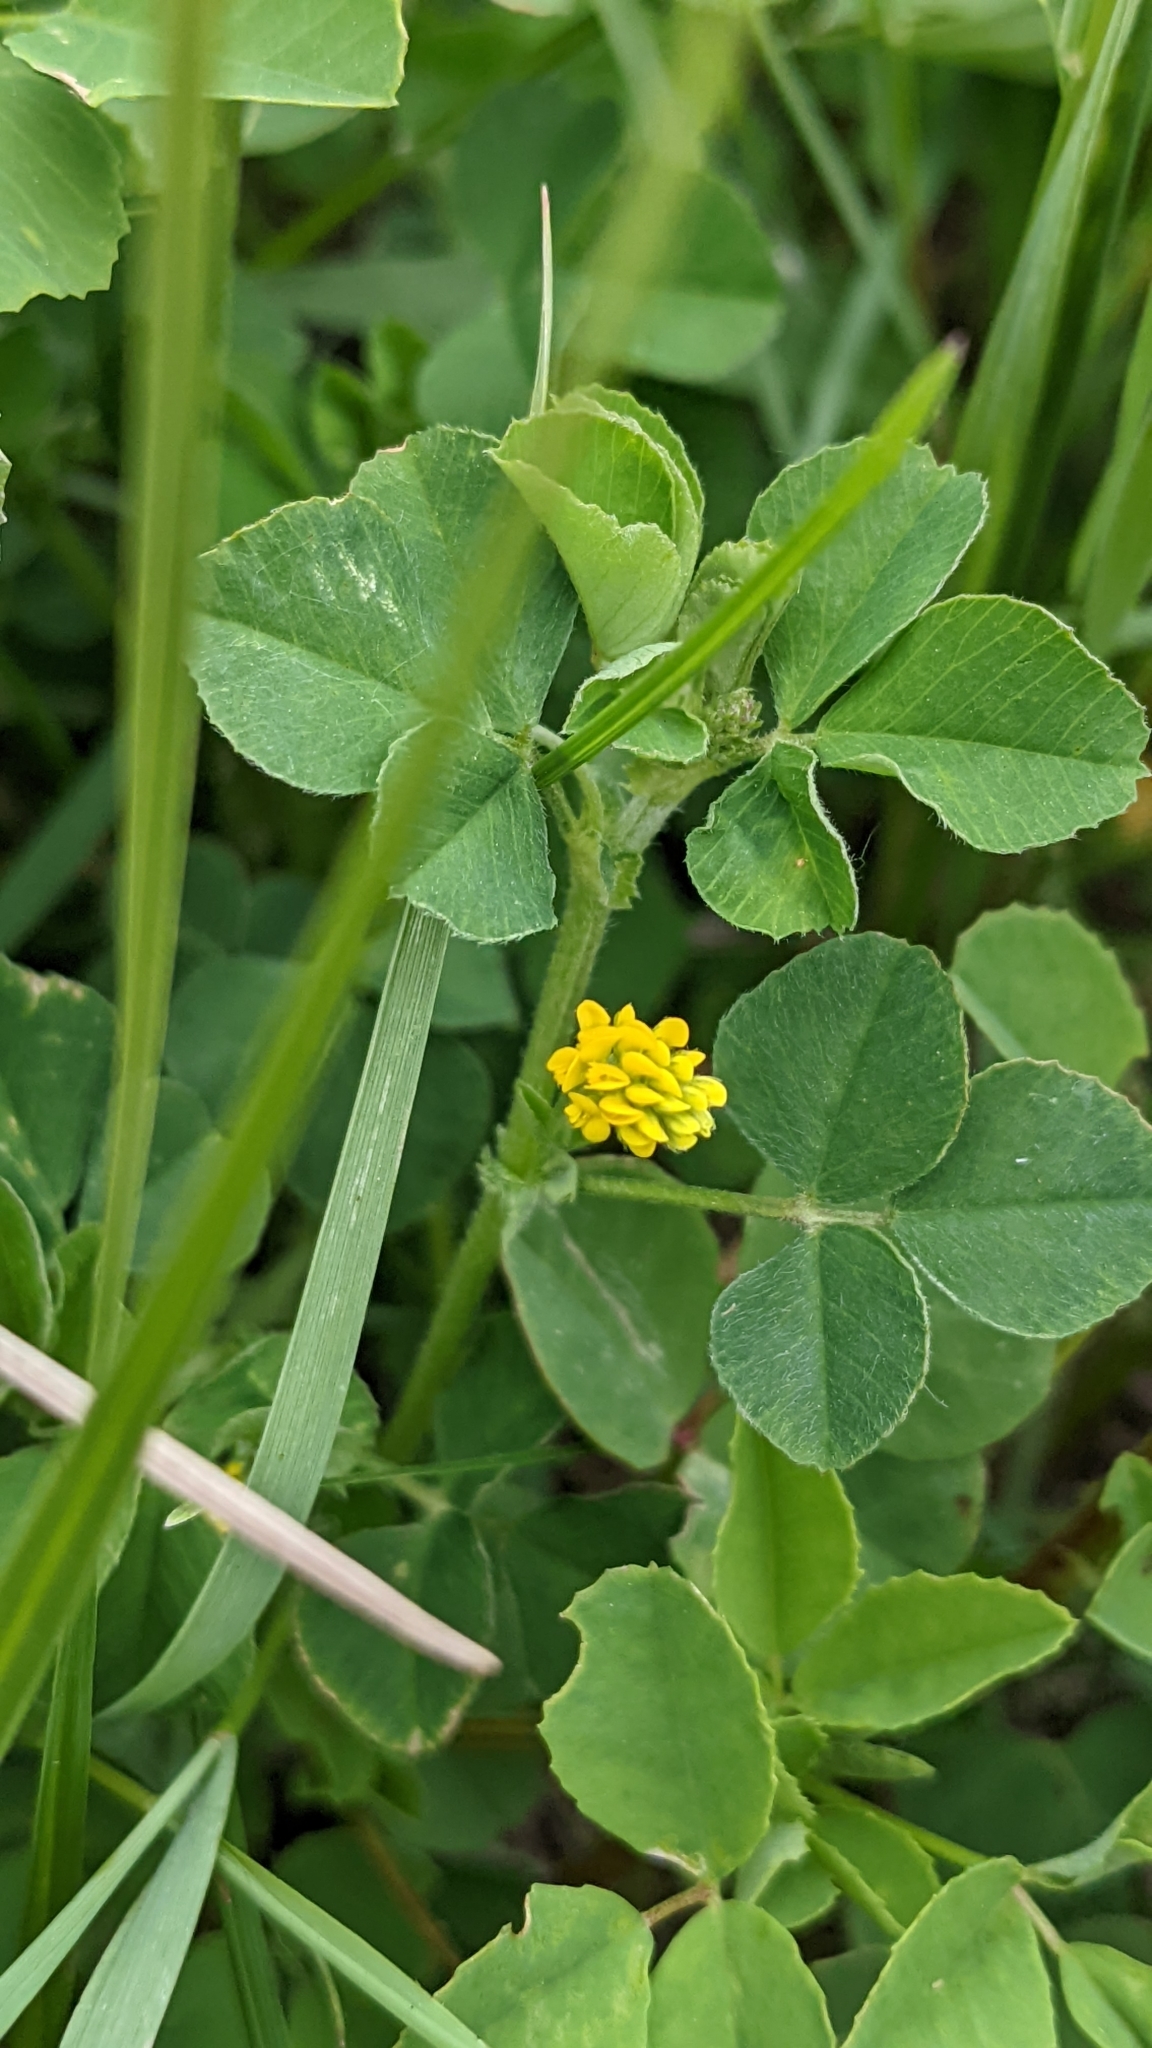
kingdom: Plantae
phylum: Tracheophyta
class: Magnoliopsida
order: Fabales
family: Fabaceae
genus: Medicago
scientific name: Medicago lupulina
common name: Black medick
